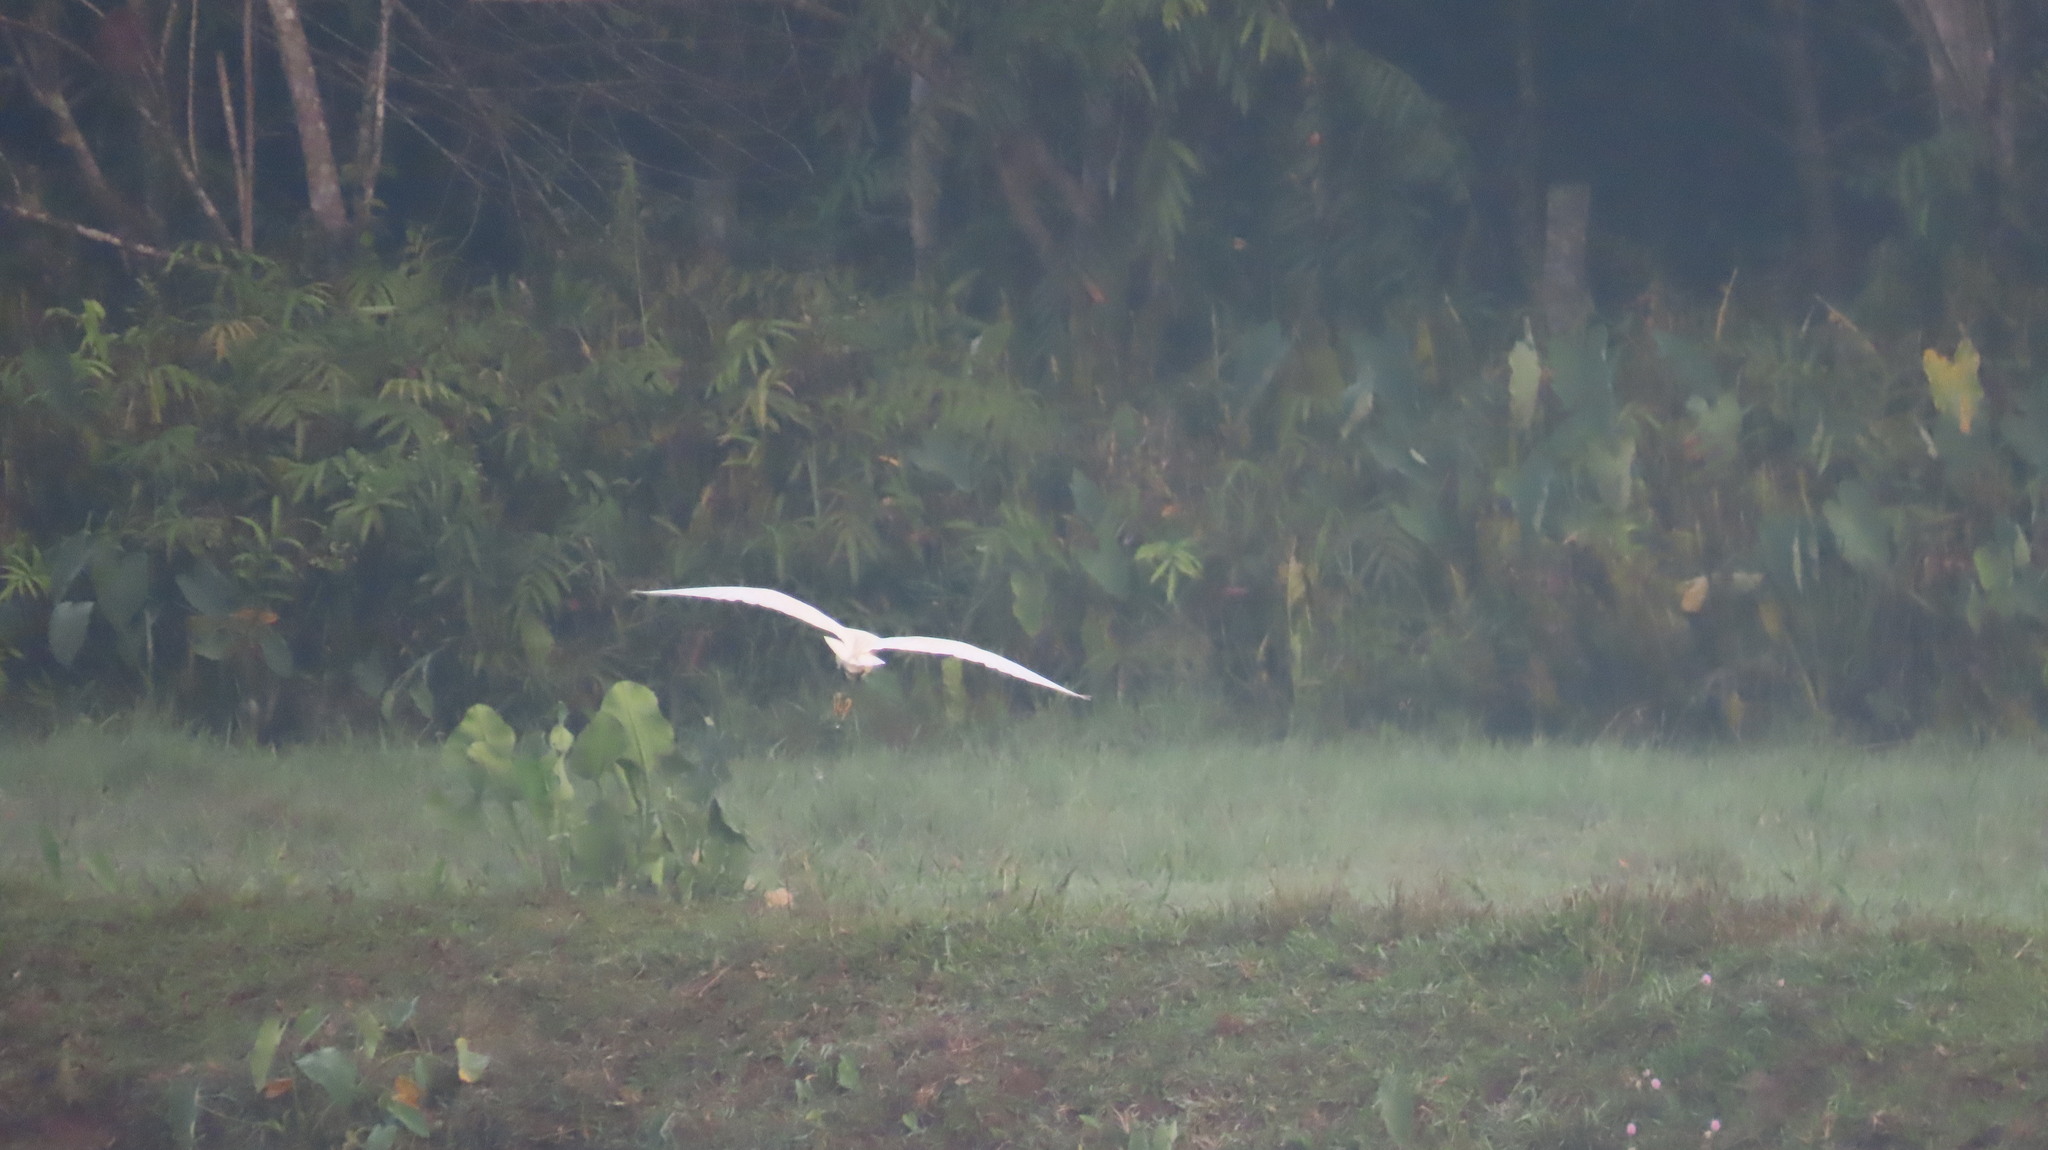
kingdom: Animalia
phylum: Chordata
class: Aves
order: Pelecaniformes
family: Ardeidae
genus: Egretta
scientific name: Egretta garzetta
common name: Little egret
